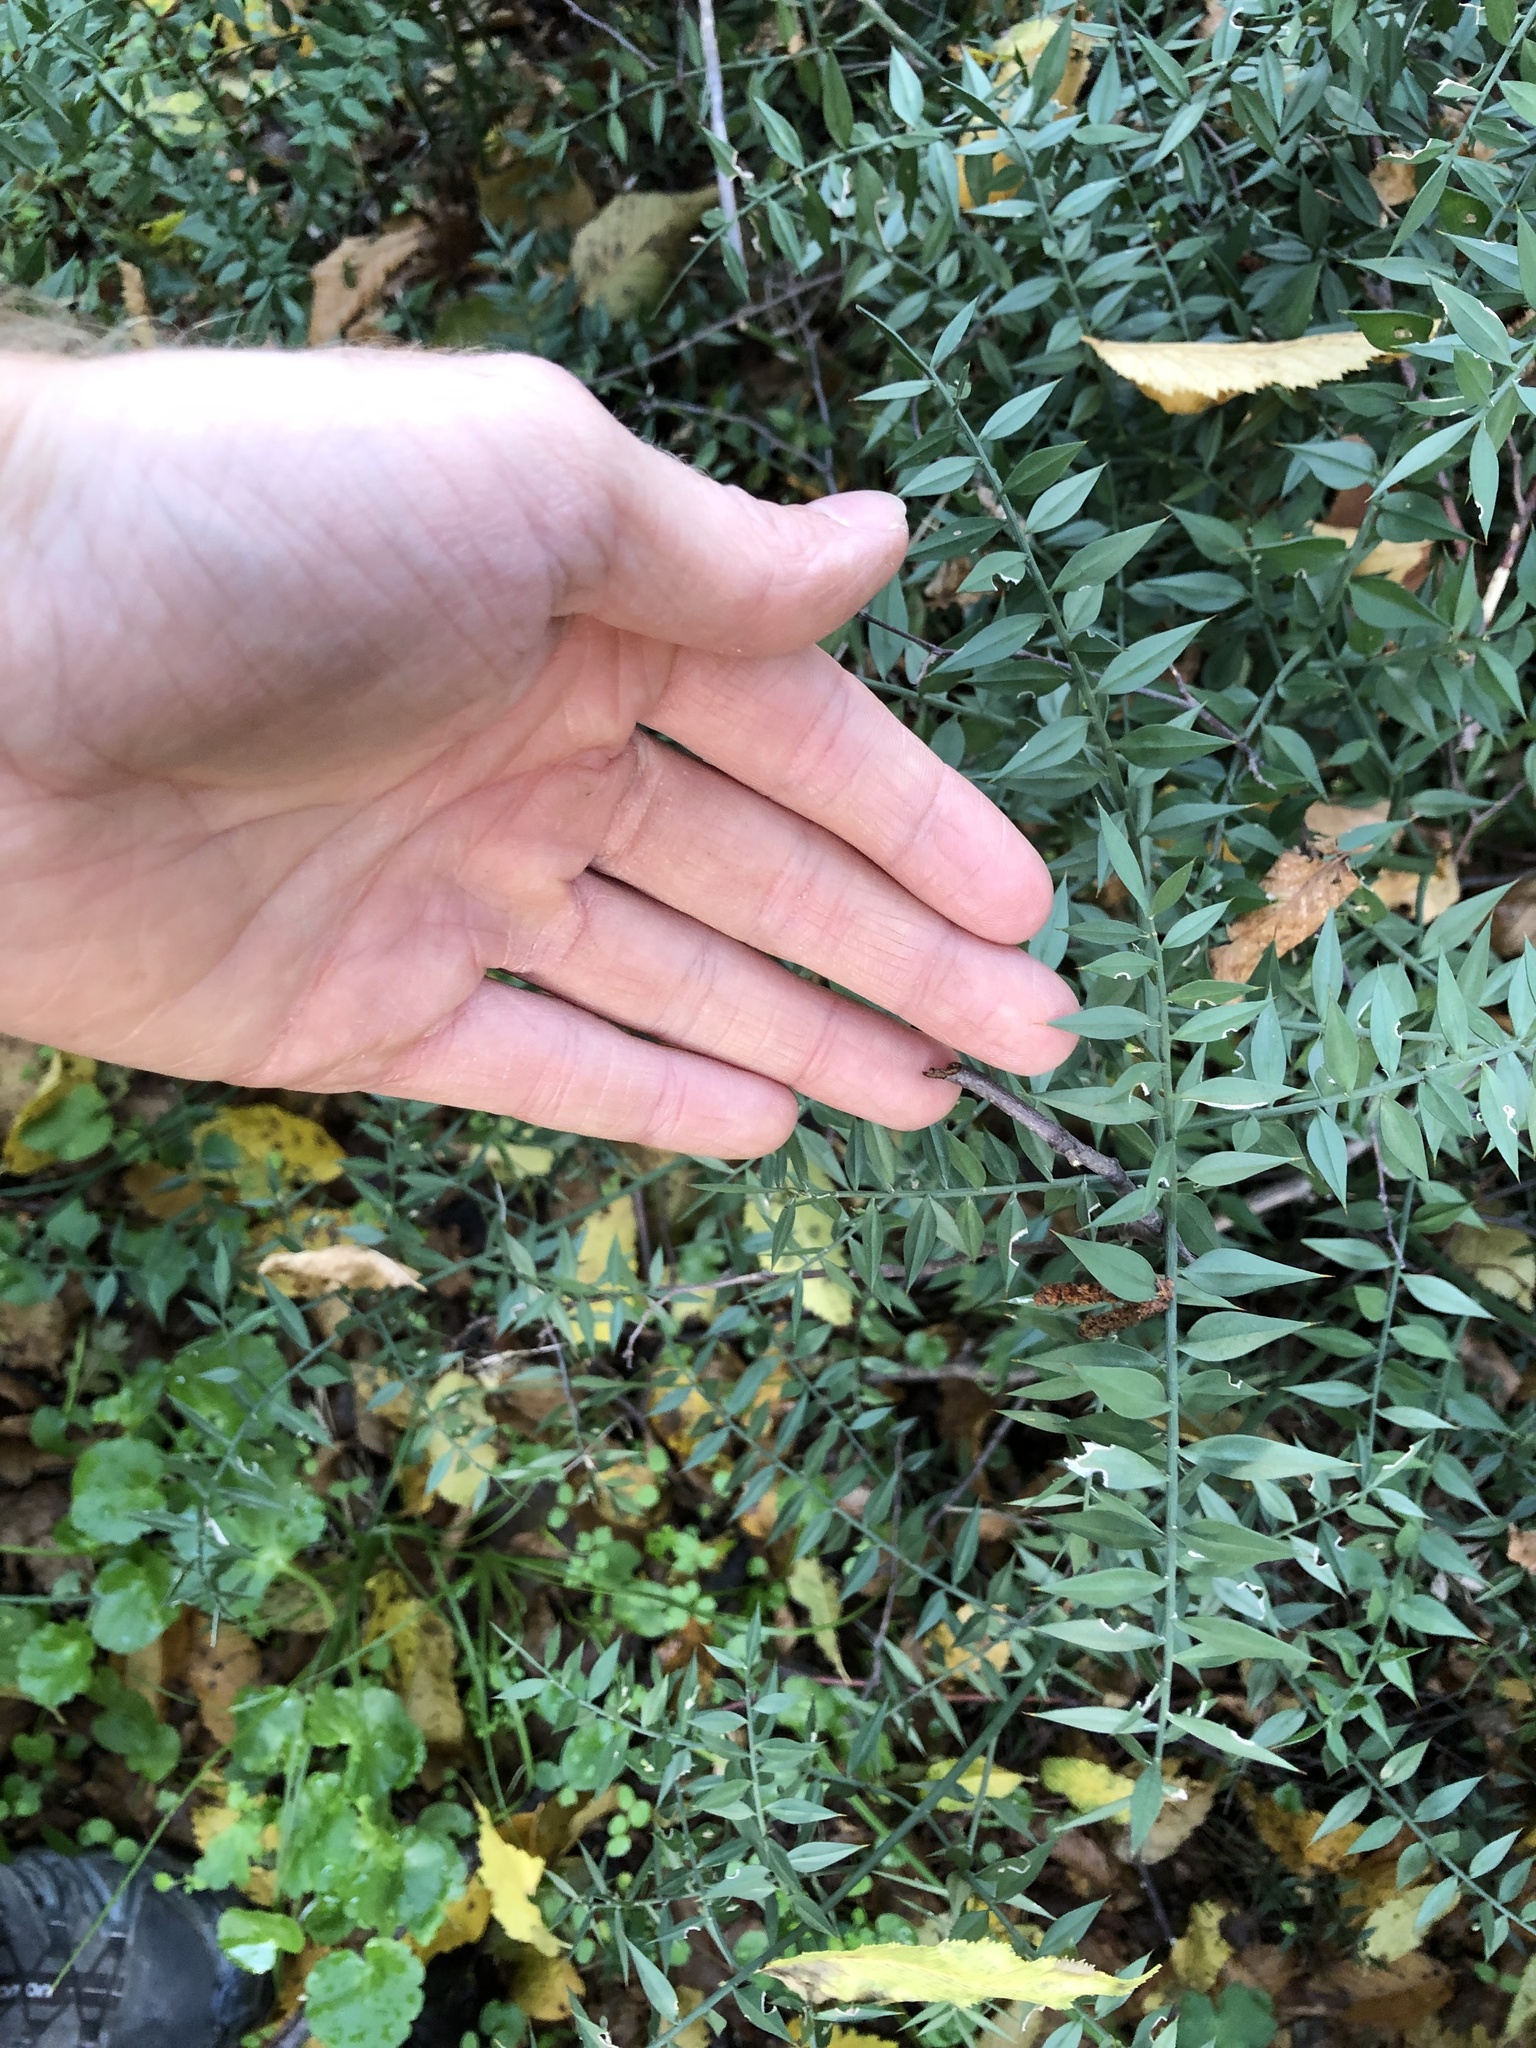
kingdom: Plantae
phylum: Tracheophyta
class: Liliopsida
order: Asparagales
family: Asparagaceae
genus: Ruscus
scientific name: Ruscus aculeatus
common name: Butcher's-broom
